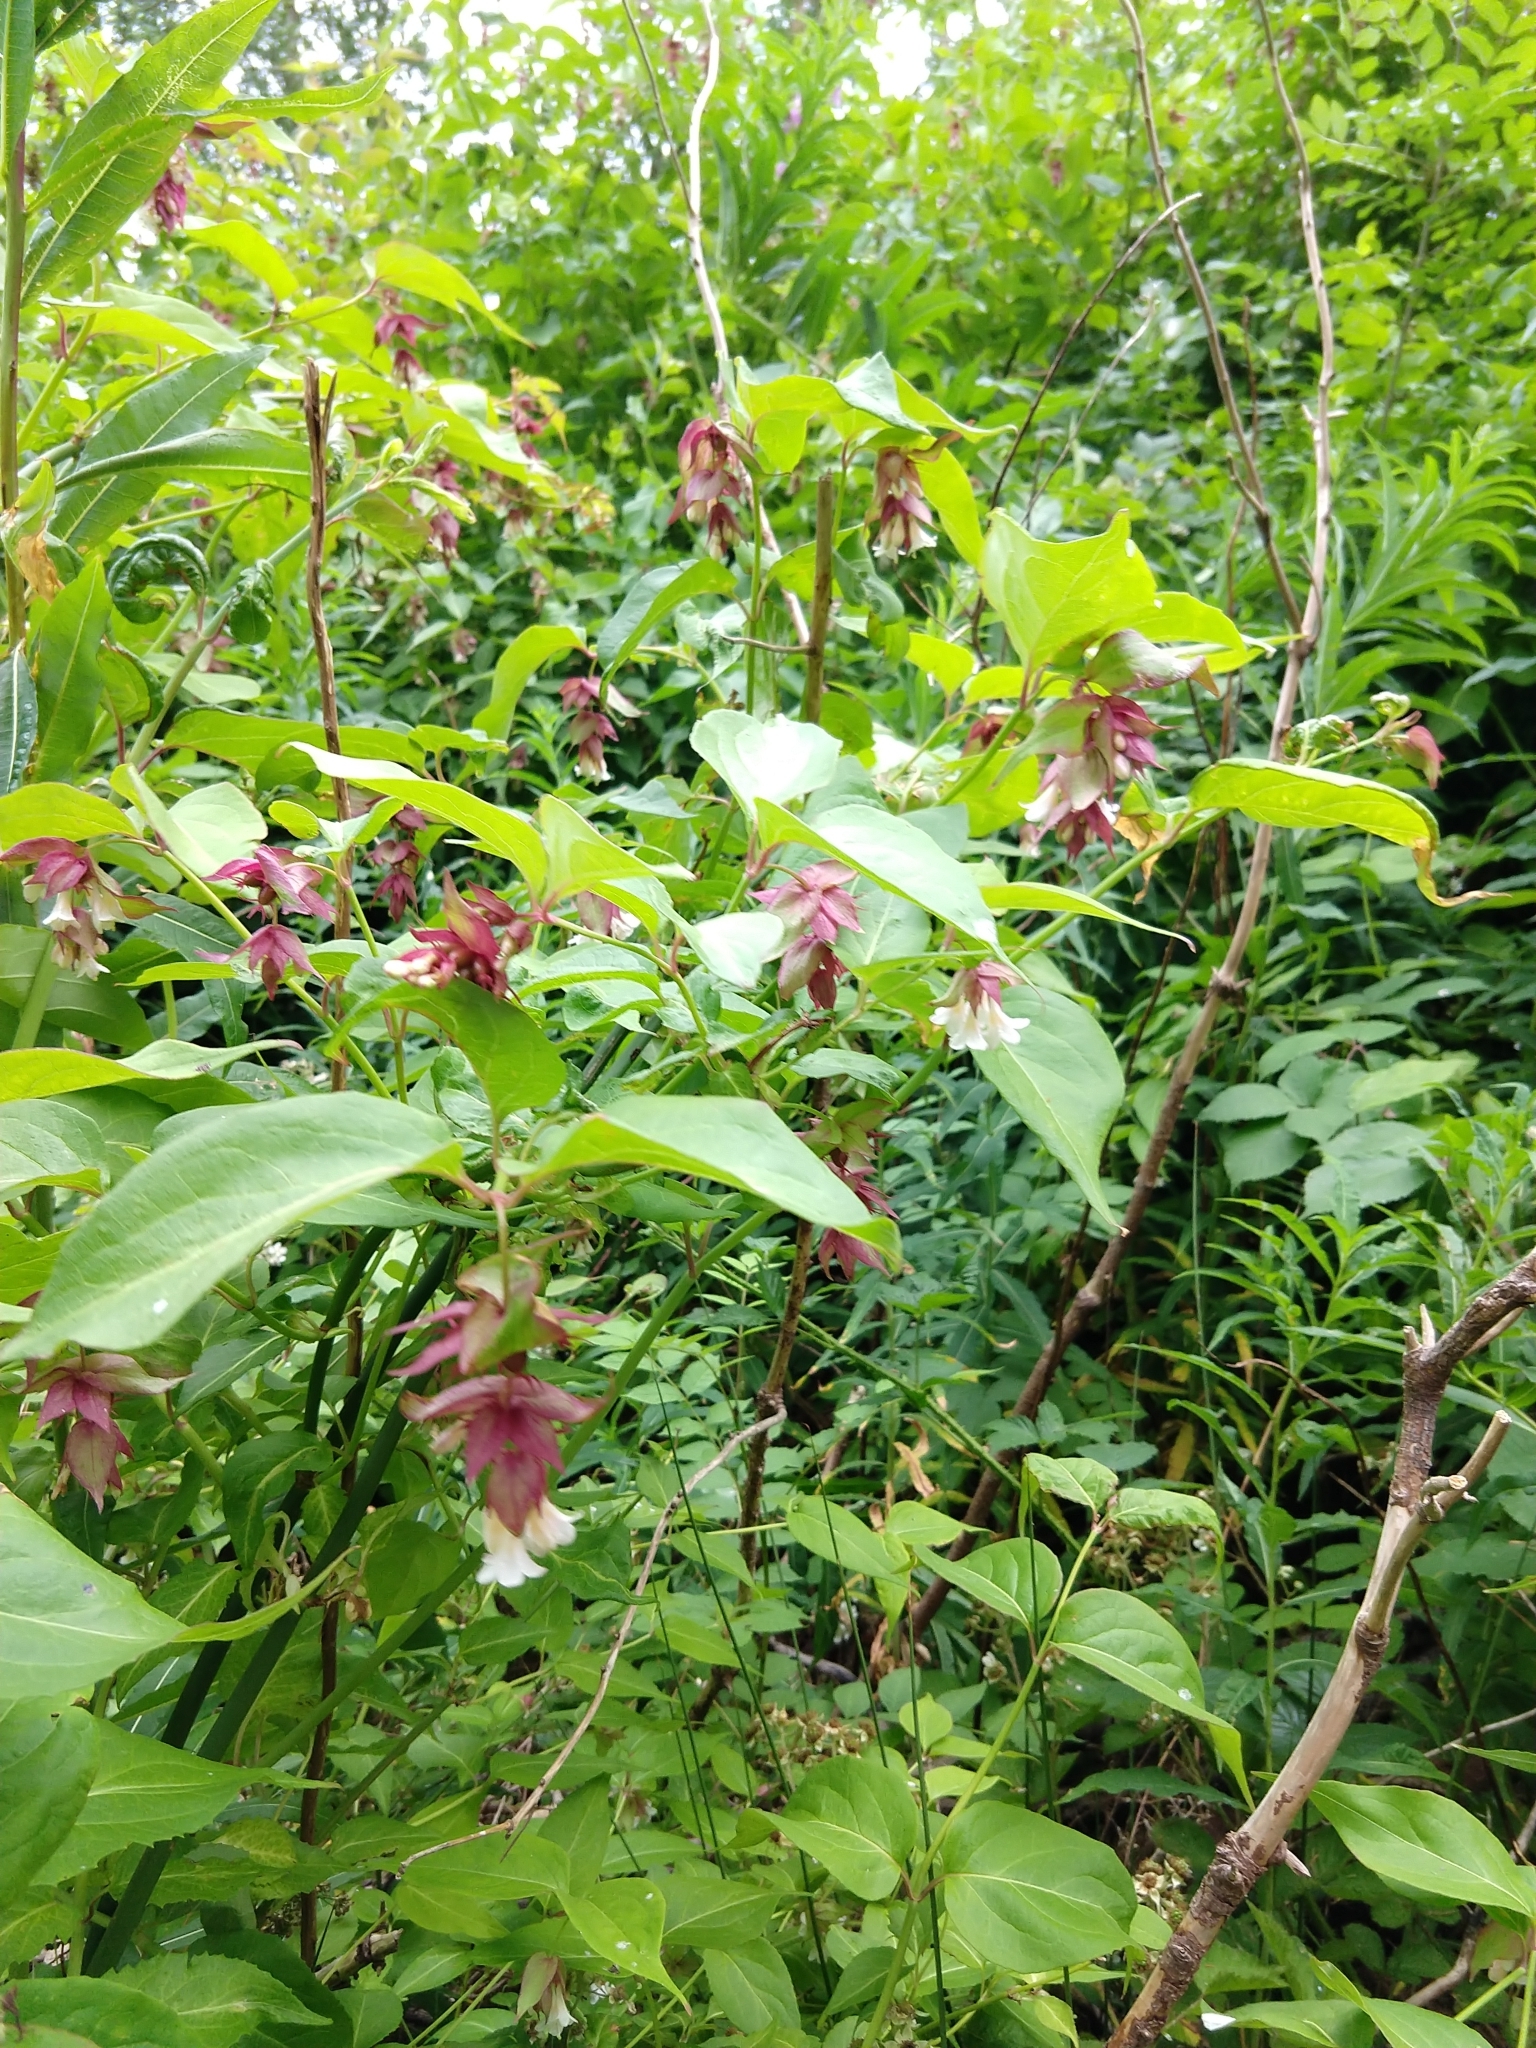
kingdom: Plantae
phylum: Tracheophyta
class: Magnoliopsida
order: Dipsacales
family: Caprifoliaceae
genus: Leycesteria
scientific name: Leycesteria formosa
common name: Himalayan honeysuckle
